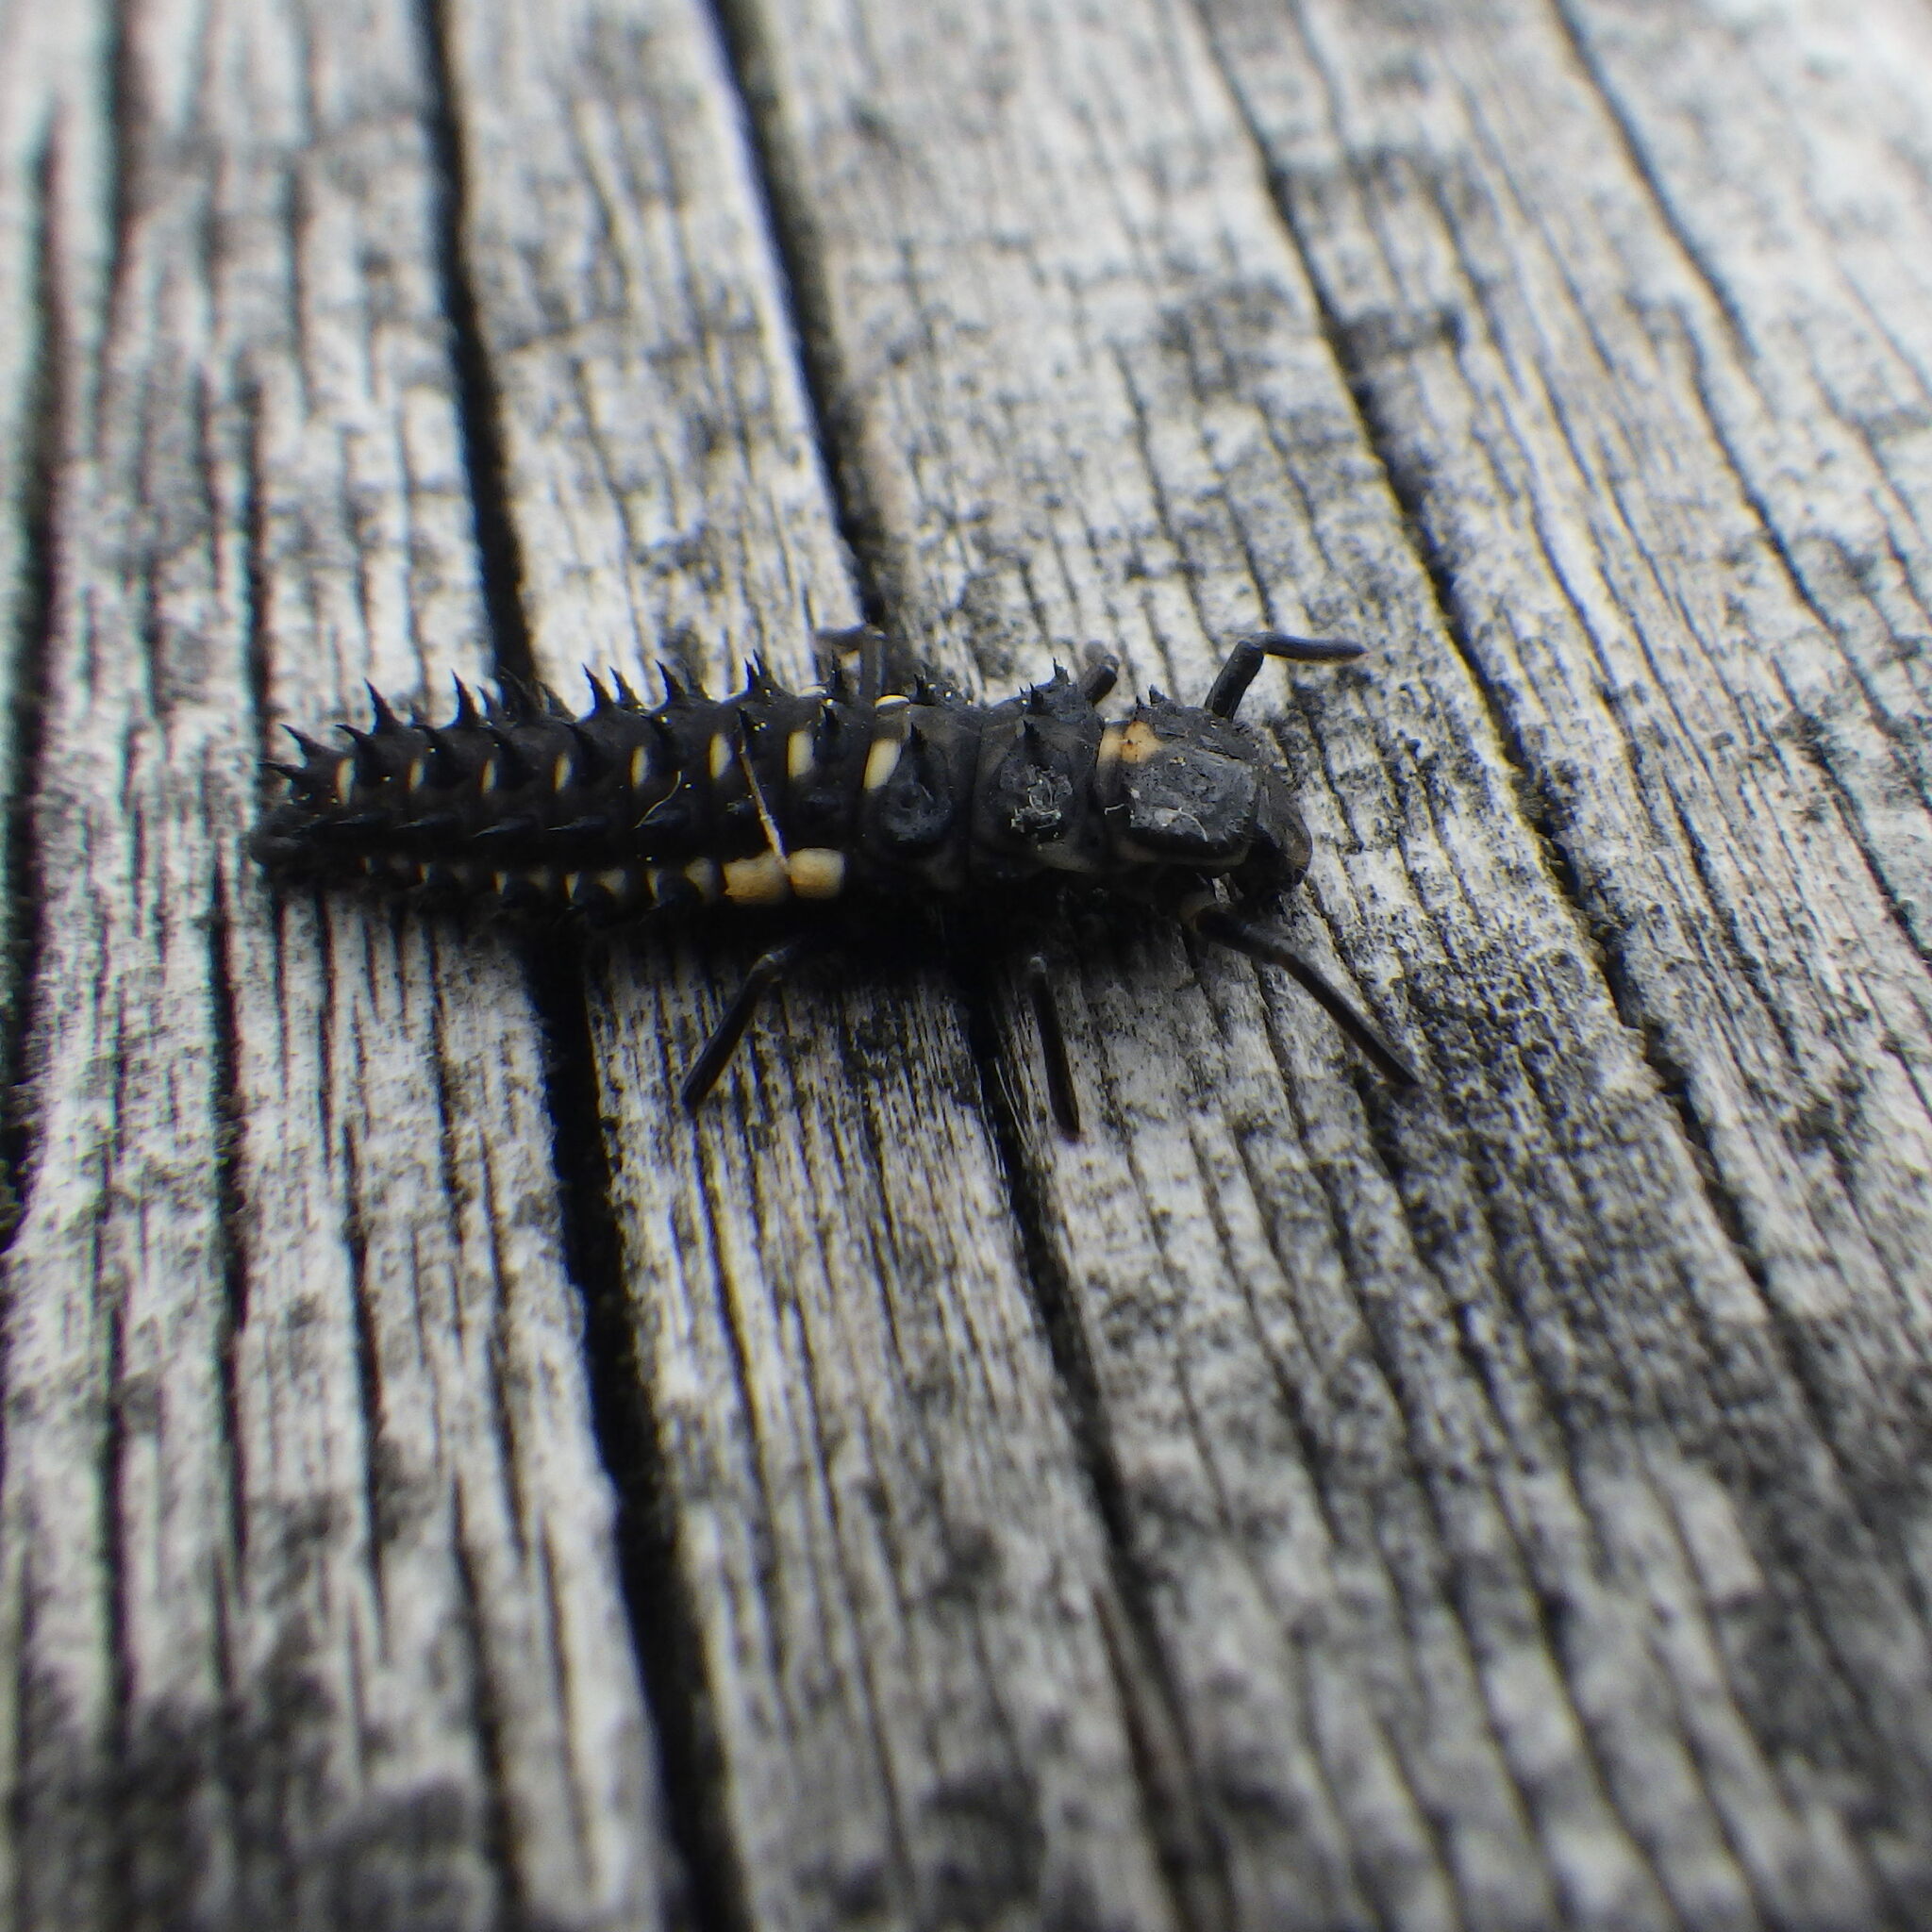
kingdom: Animalia
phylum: Arthropoda
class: Insecta
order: Coleoptera
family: Coccinellidae
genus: Anatis
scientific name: Anatis mali
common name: Eye-spotted lady beetle
